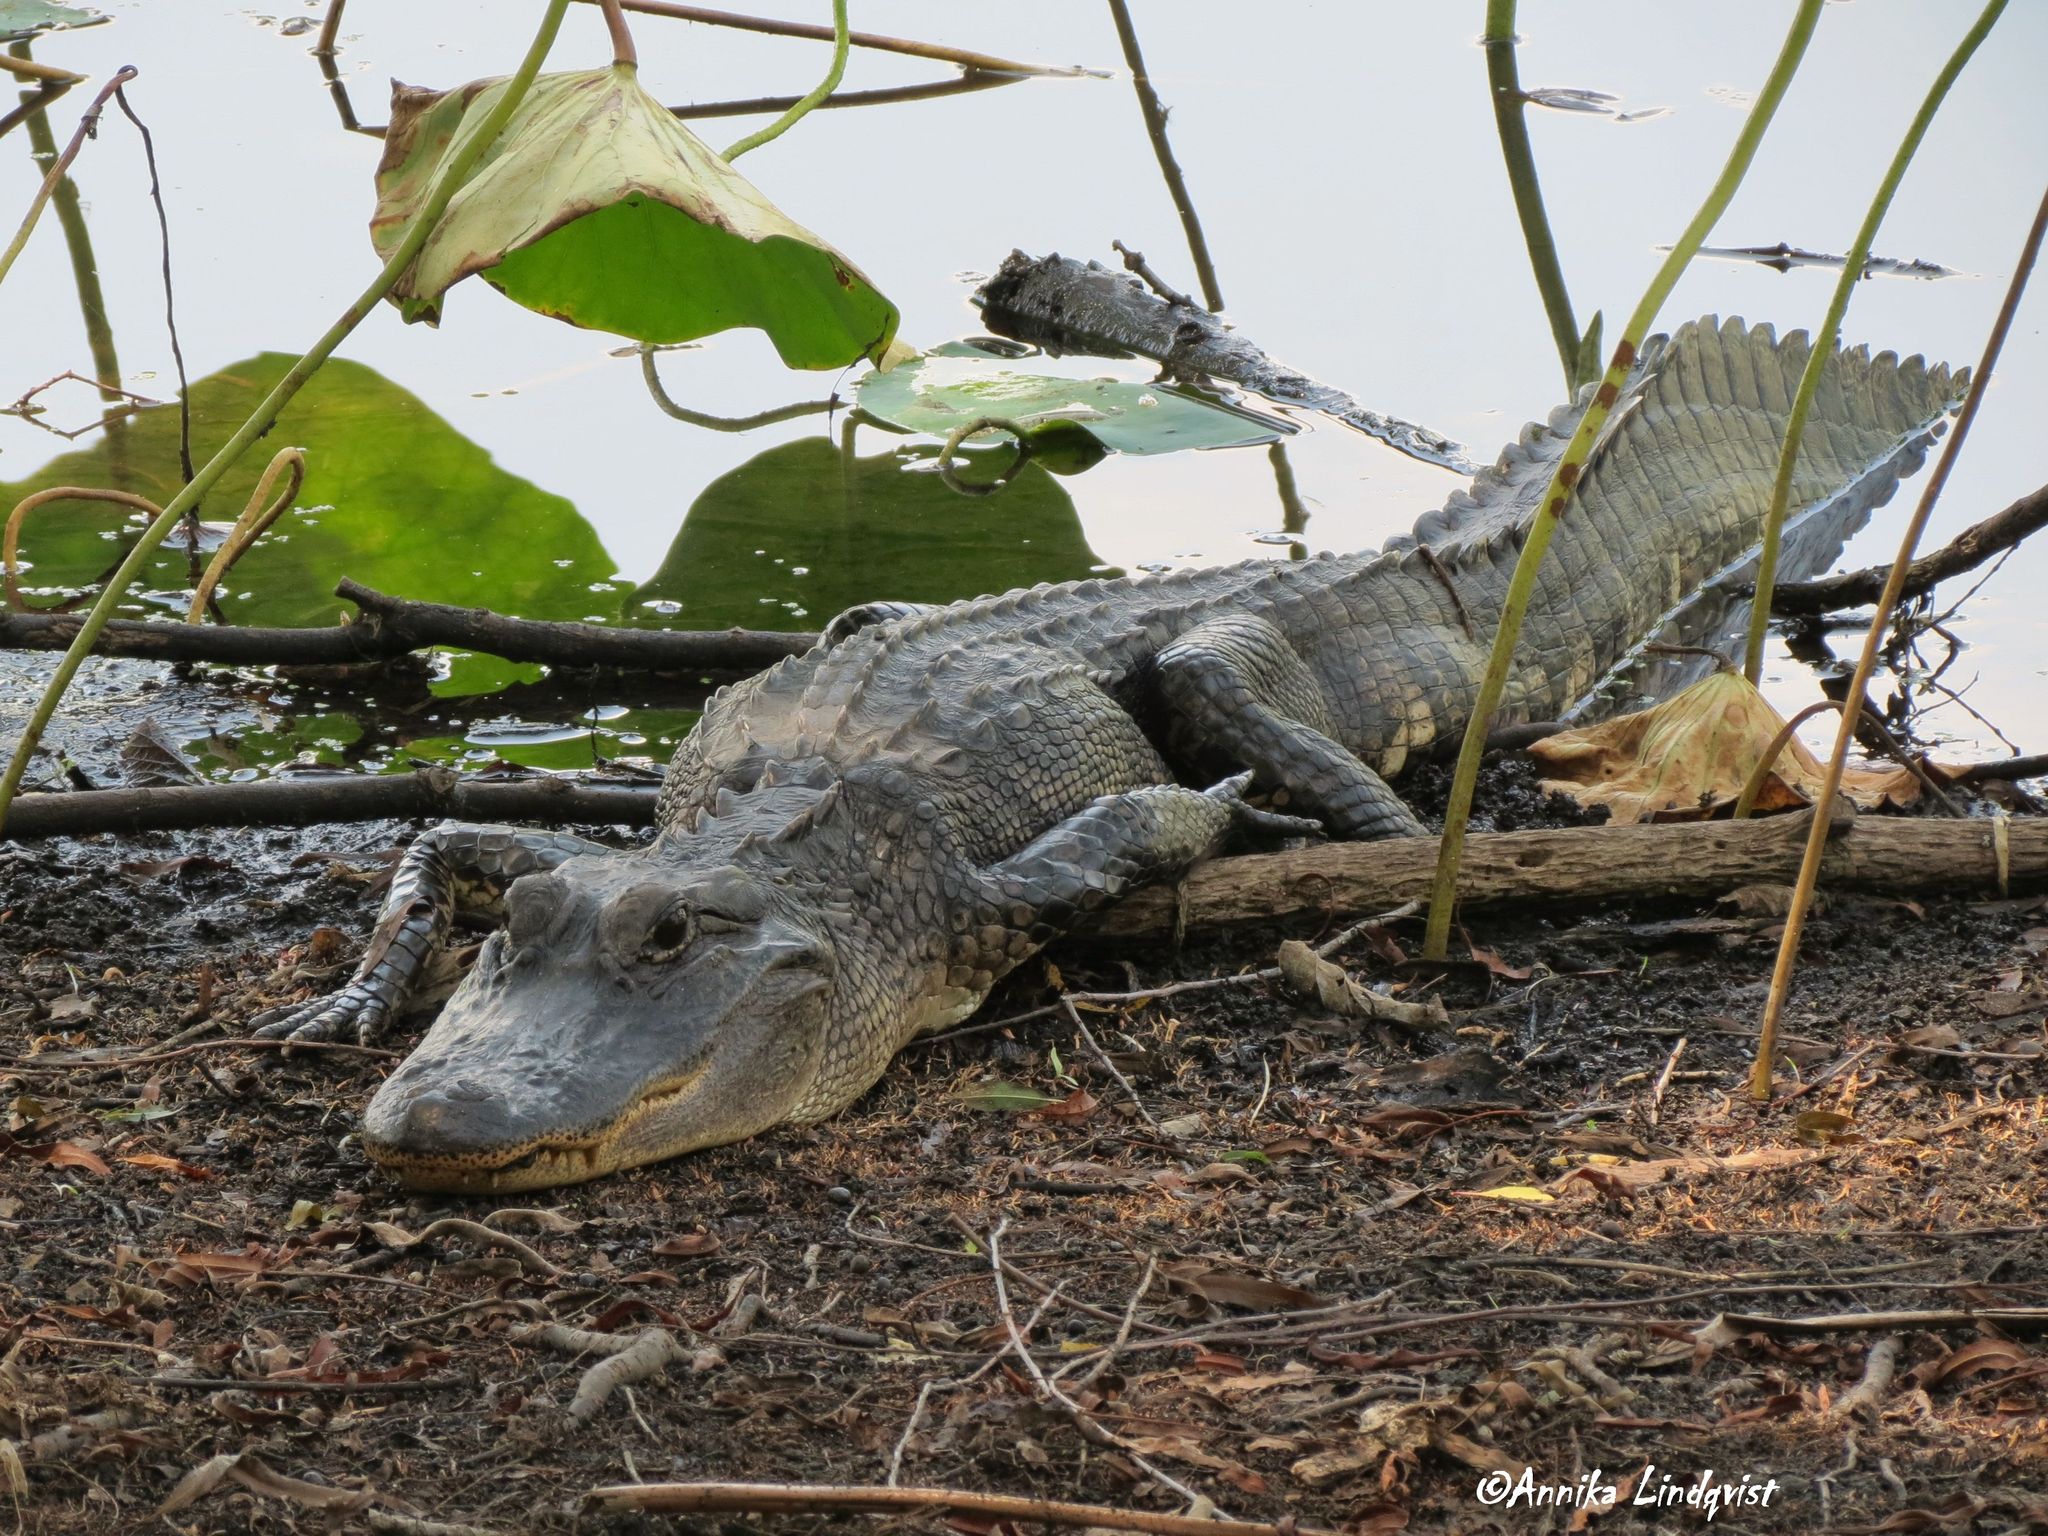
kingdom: Animalia
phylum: Chordata
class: Crocodylia
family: Alligatoridae
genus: Alligator
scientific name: Alligator mississippiensis
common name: American alligator
